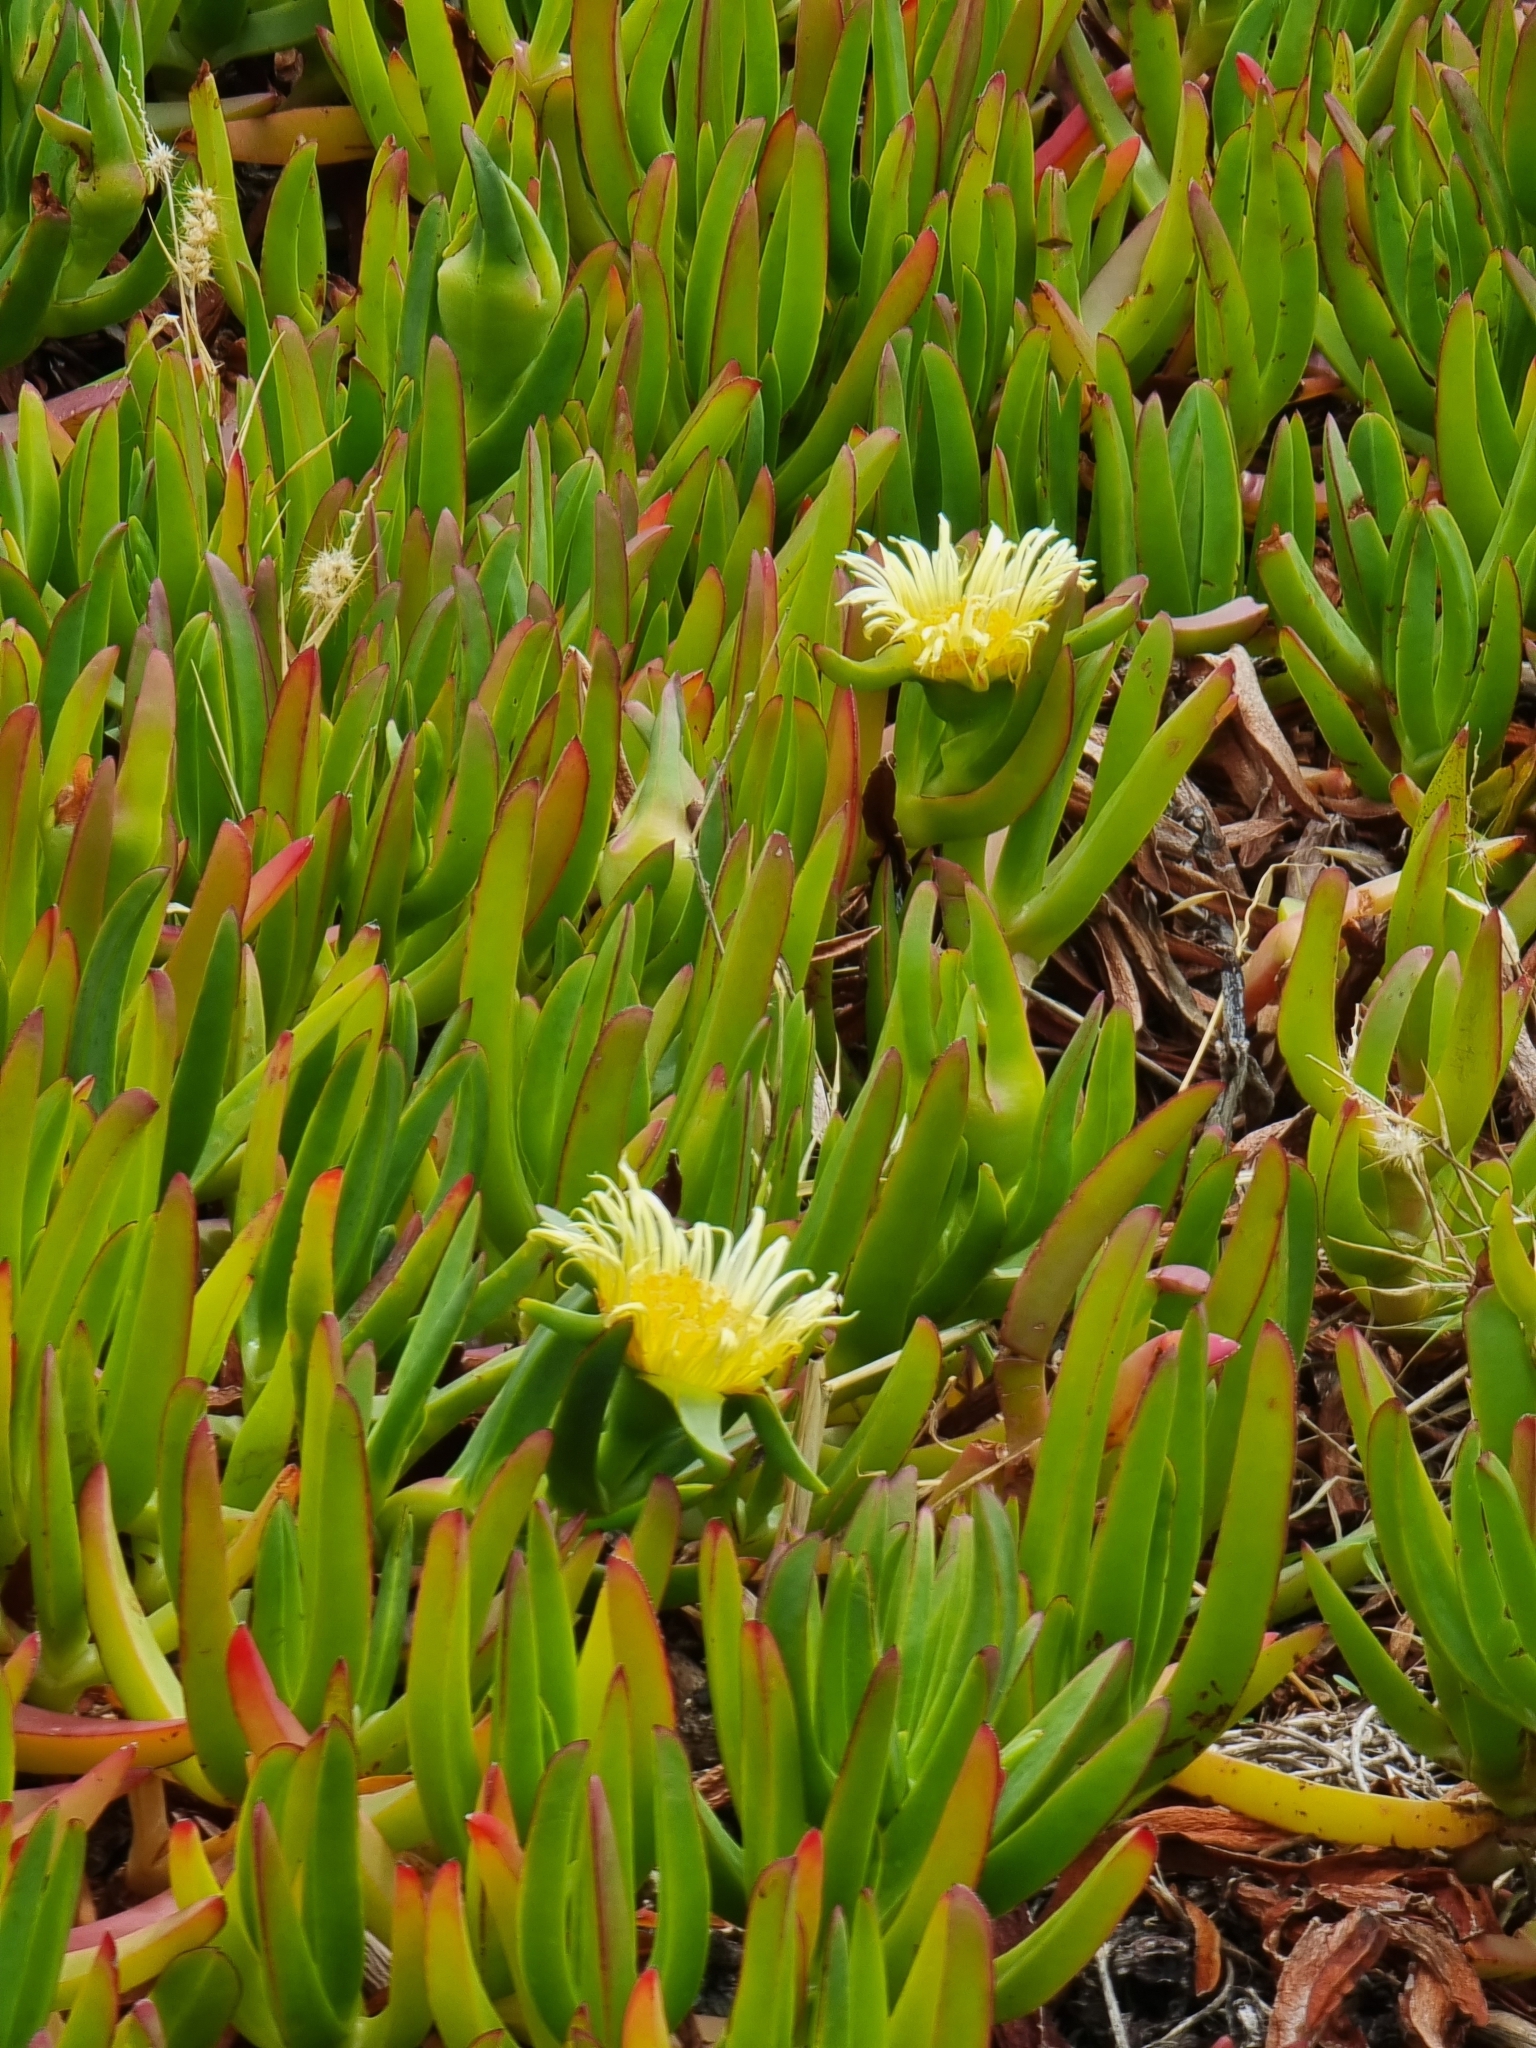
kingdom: Plantae
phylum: Tracheophyta
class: Magnoliopsida
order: Caryophyllales
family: Aizoaceae
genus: Carpobrotus
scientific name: Carpobrotus edulis
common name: Hottentot-fig
